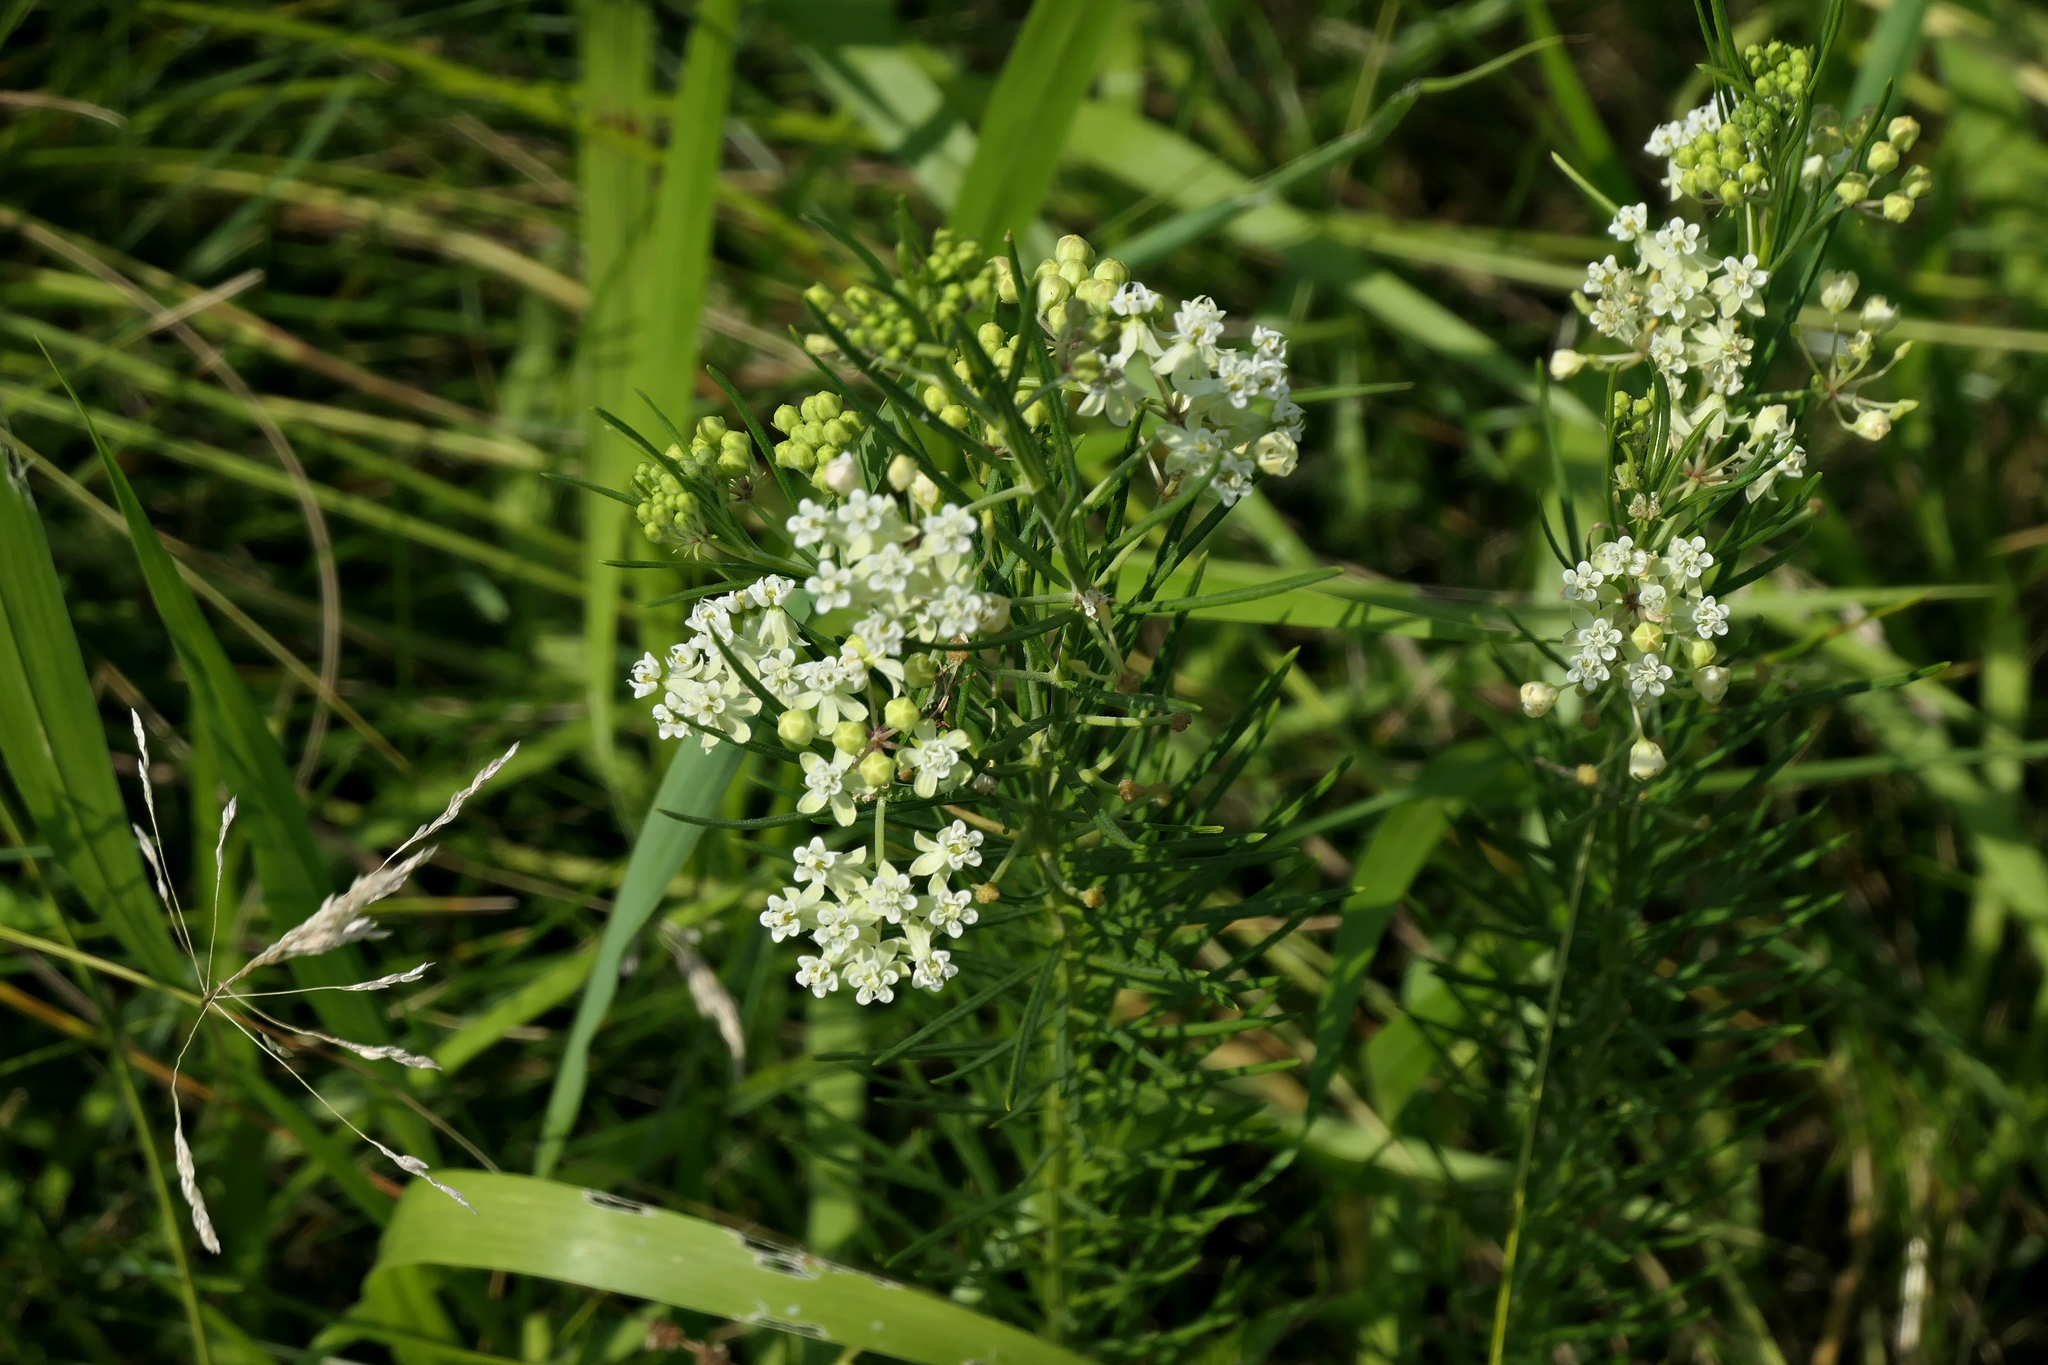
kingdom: Plantae
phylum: Tracheophyta
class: Magnoliopsida
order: Gentianales
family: Apocynaceae
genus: Asclepias
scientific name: Asclepias verticillata
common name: Eastern whorled milkweed
